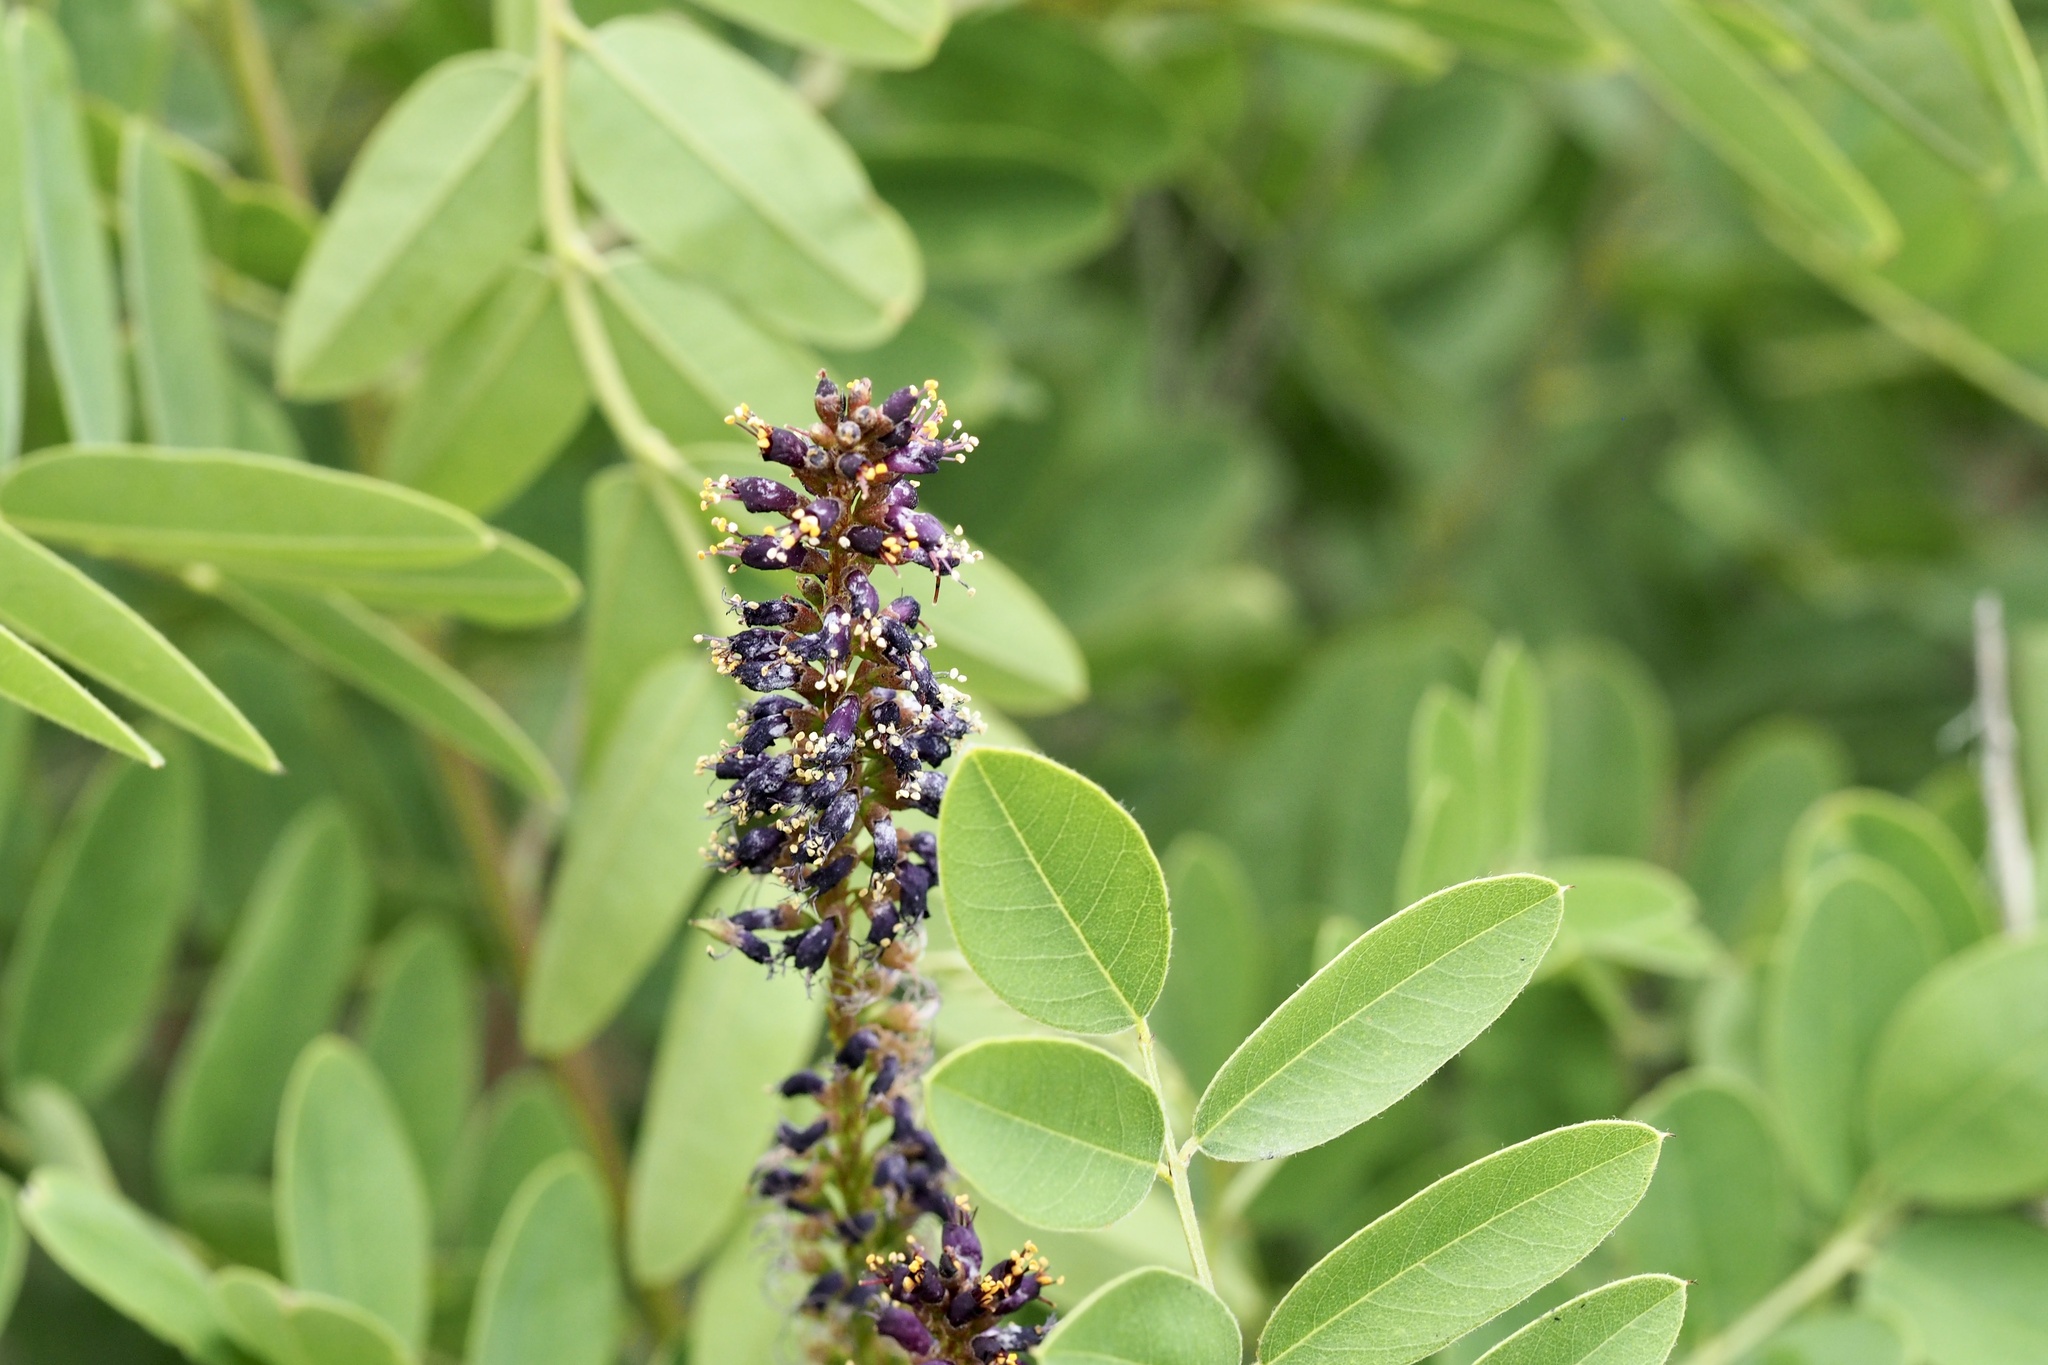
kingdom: Plantae
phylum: Tracheophyta
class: Magnoliopsida
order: Fabales
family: Fabaceae
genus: Amorpha
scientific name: Amorpha fruticosa
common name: False indigo
